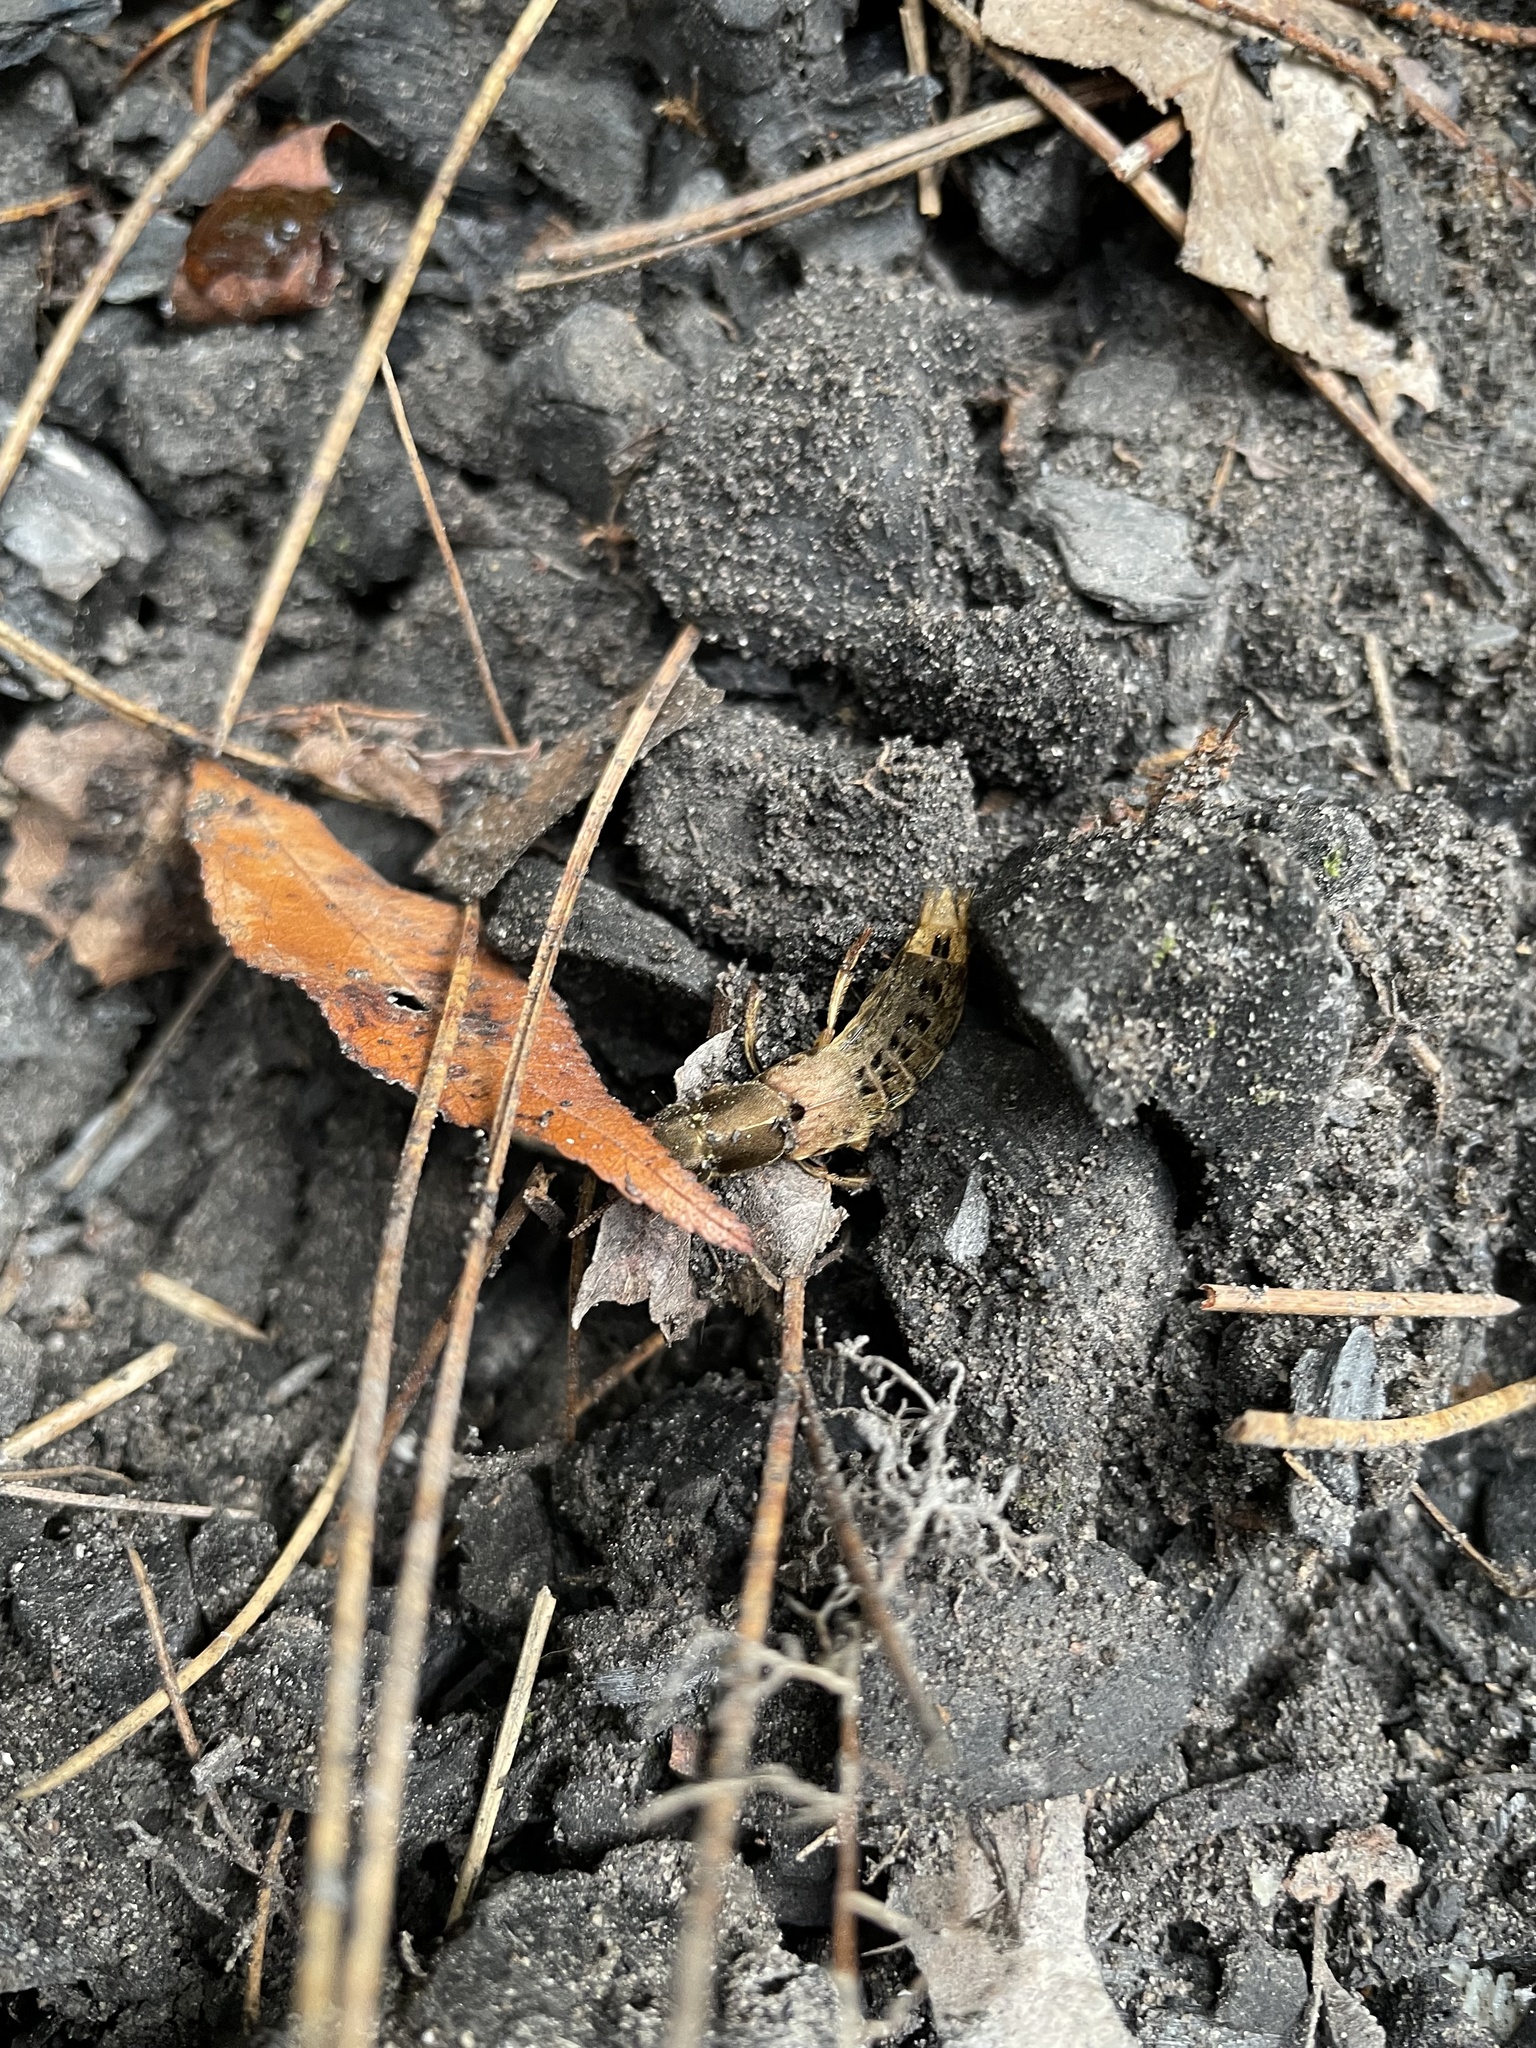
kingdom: Animalia
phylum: Arthropoda
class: Insecta
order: Coleoptera
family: Staphylinidae
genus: Platydracus
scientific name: Platydracus maculosus
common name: Brown rove beetle
